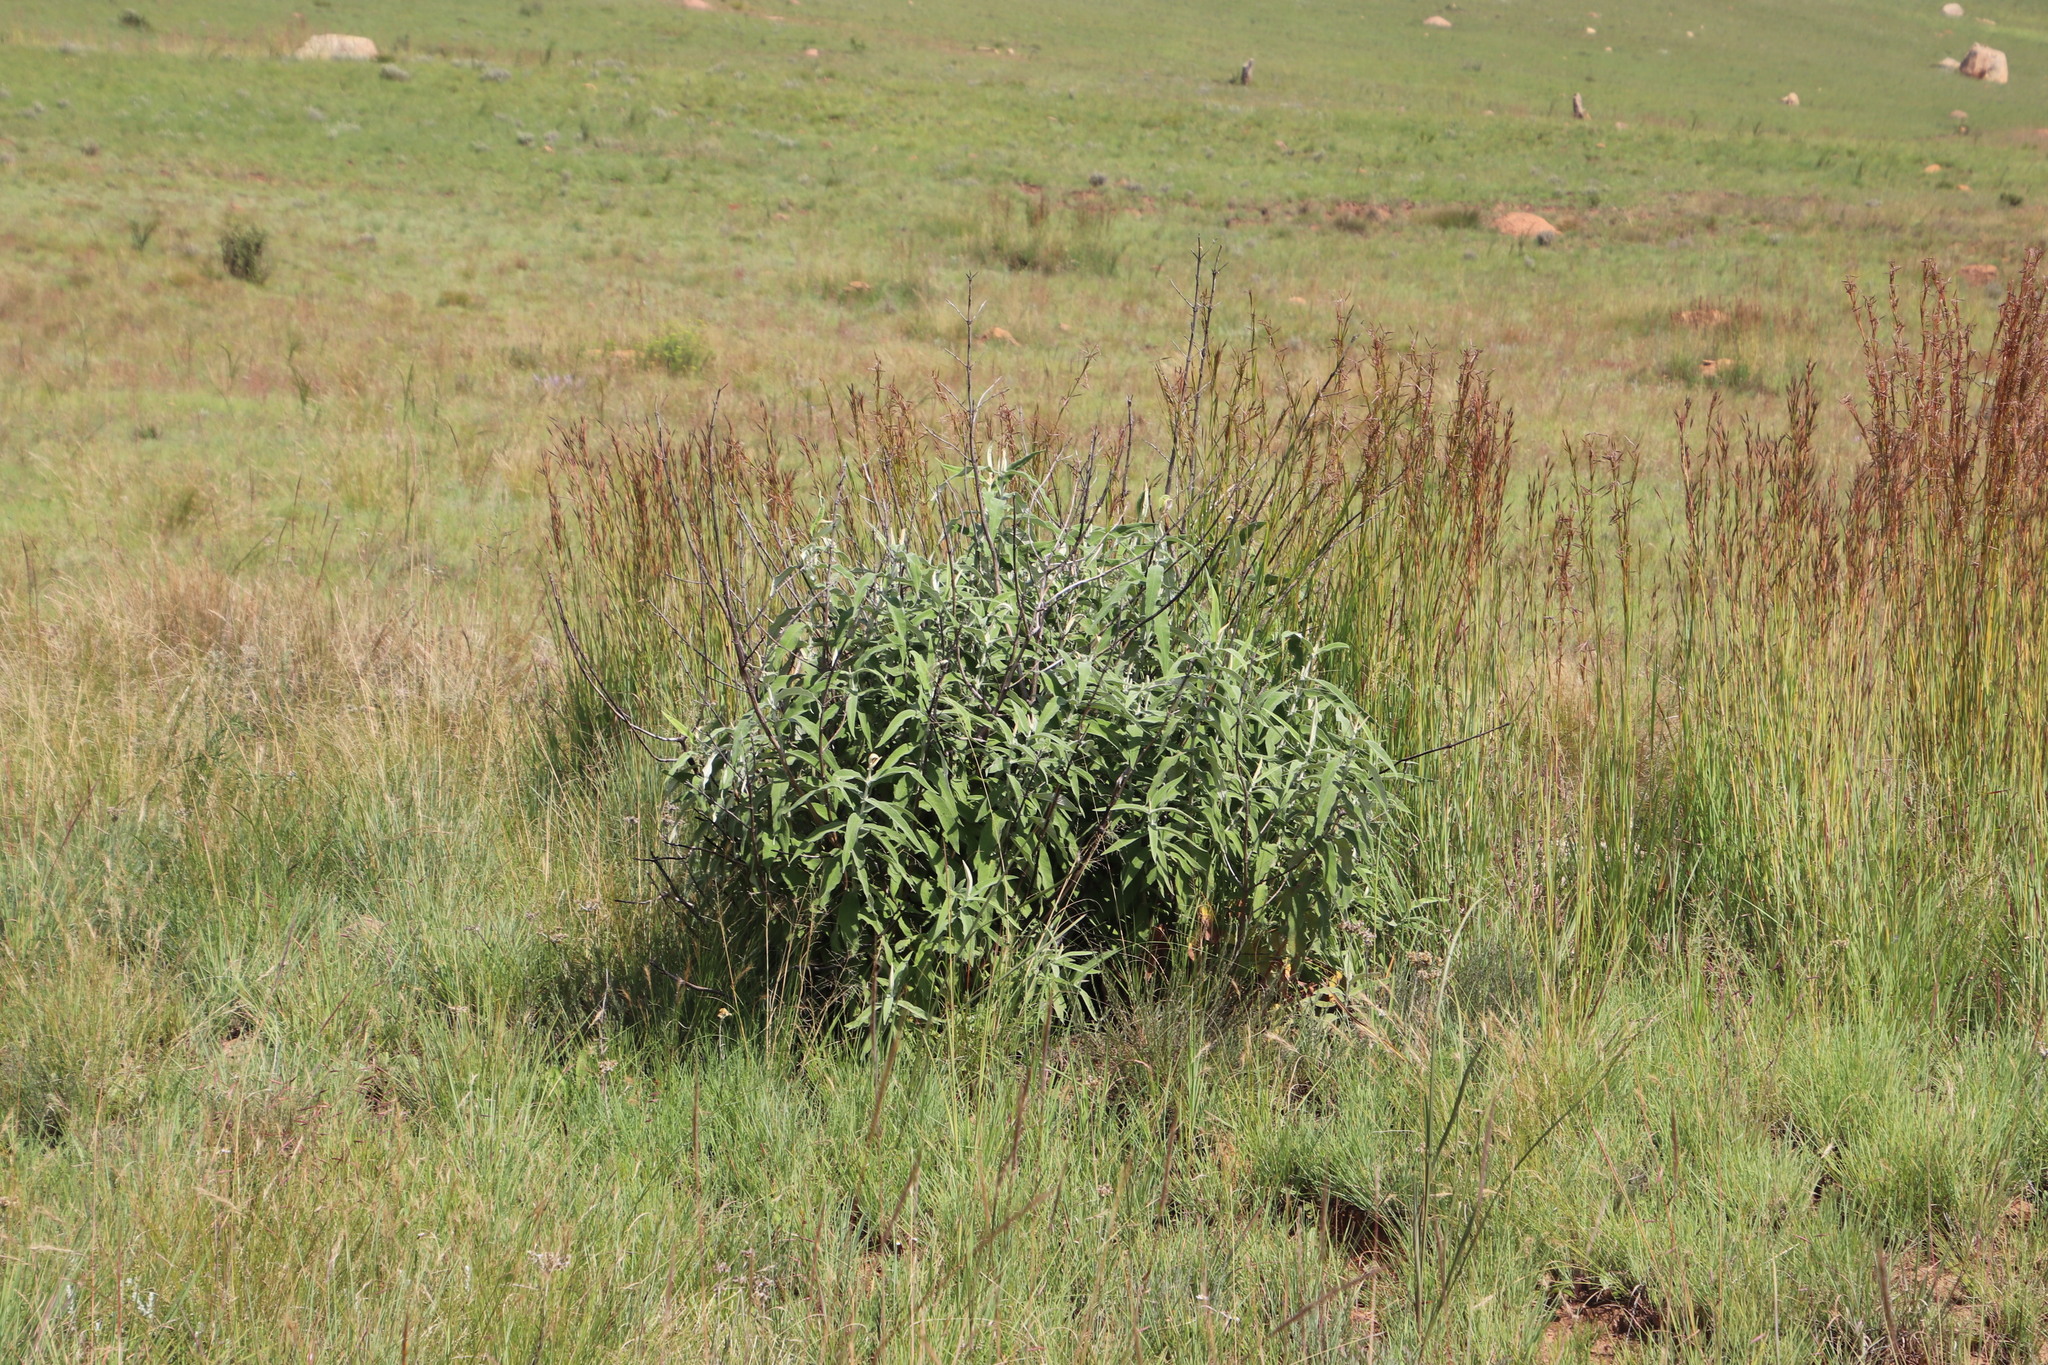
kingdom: Plantae
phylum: Tracheophyta
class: Magnoliopsida
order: Lamiales
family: Scrophulariaceae
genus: Buddleja
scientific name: Buddleja salviifolia
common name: Sagewood
